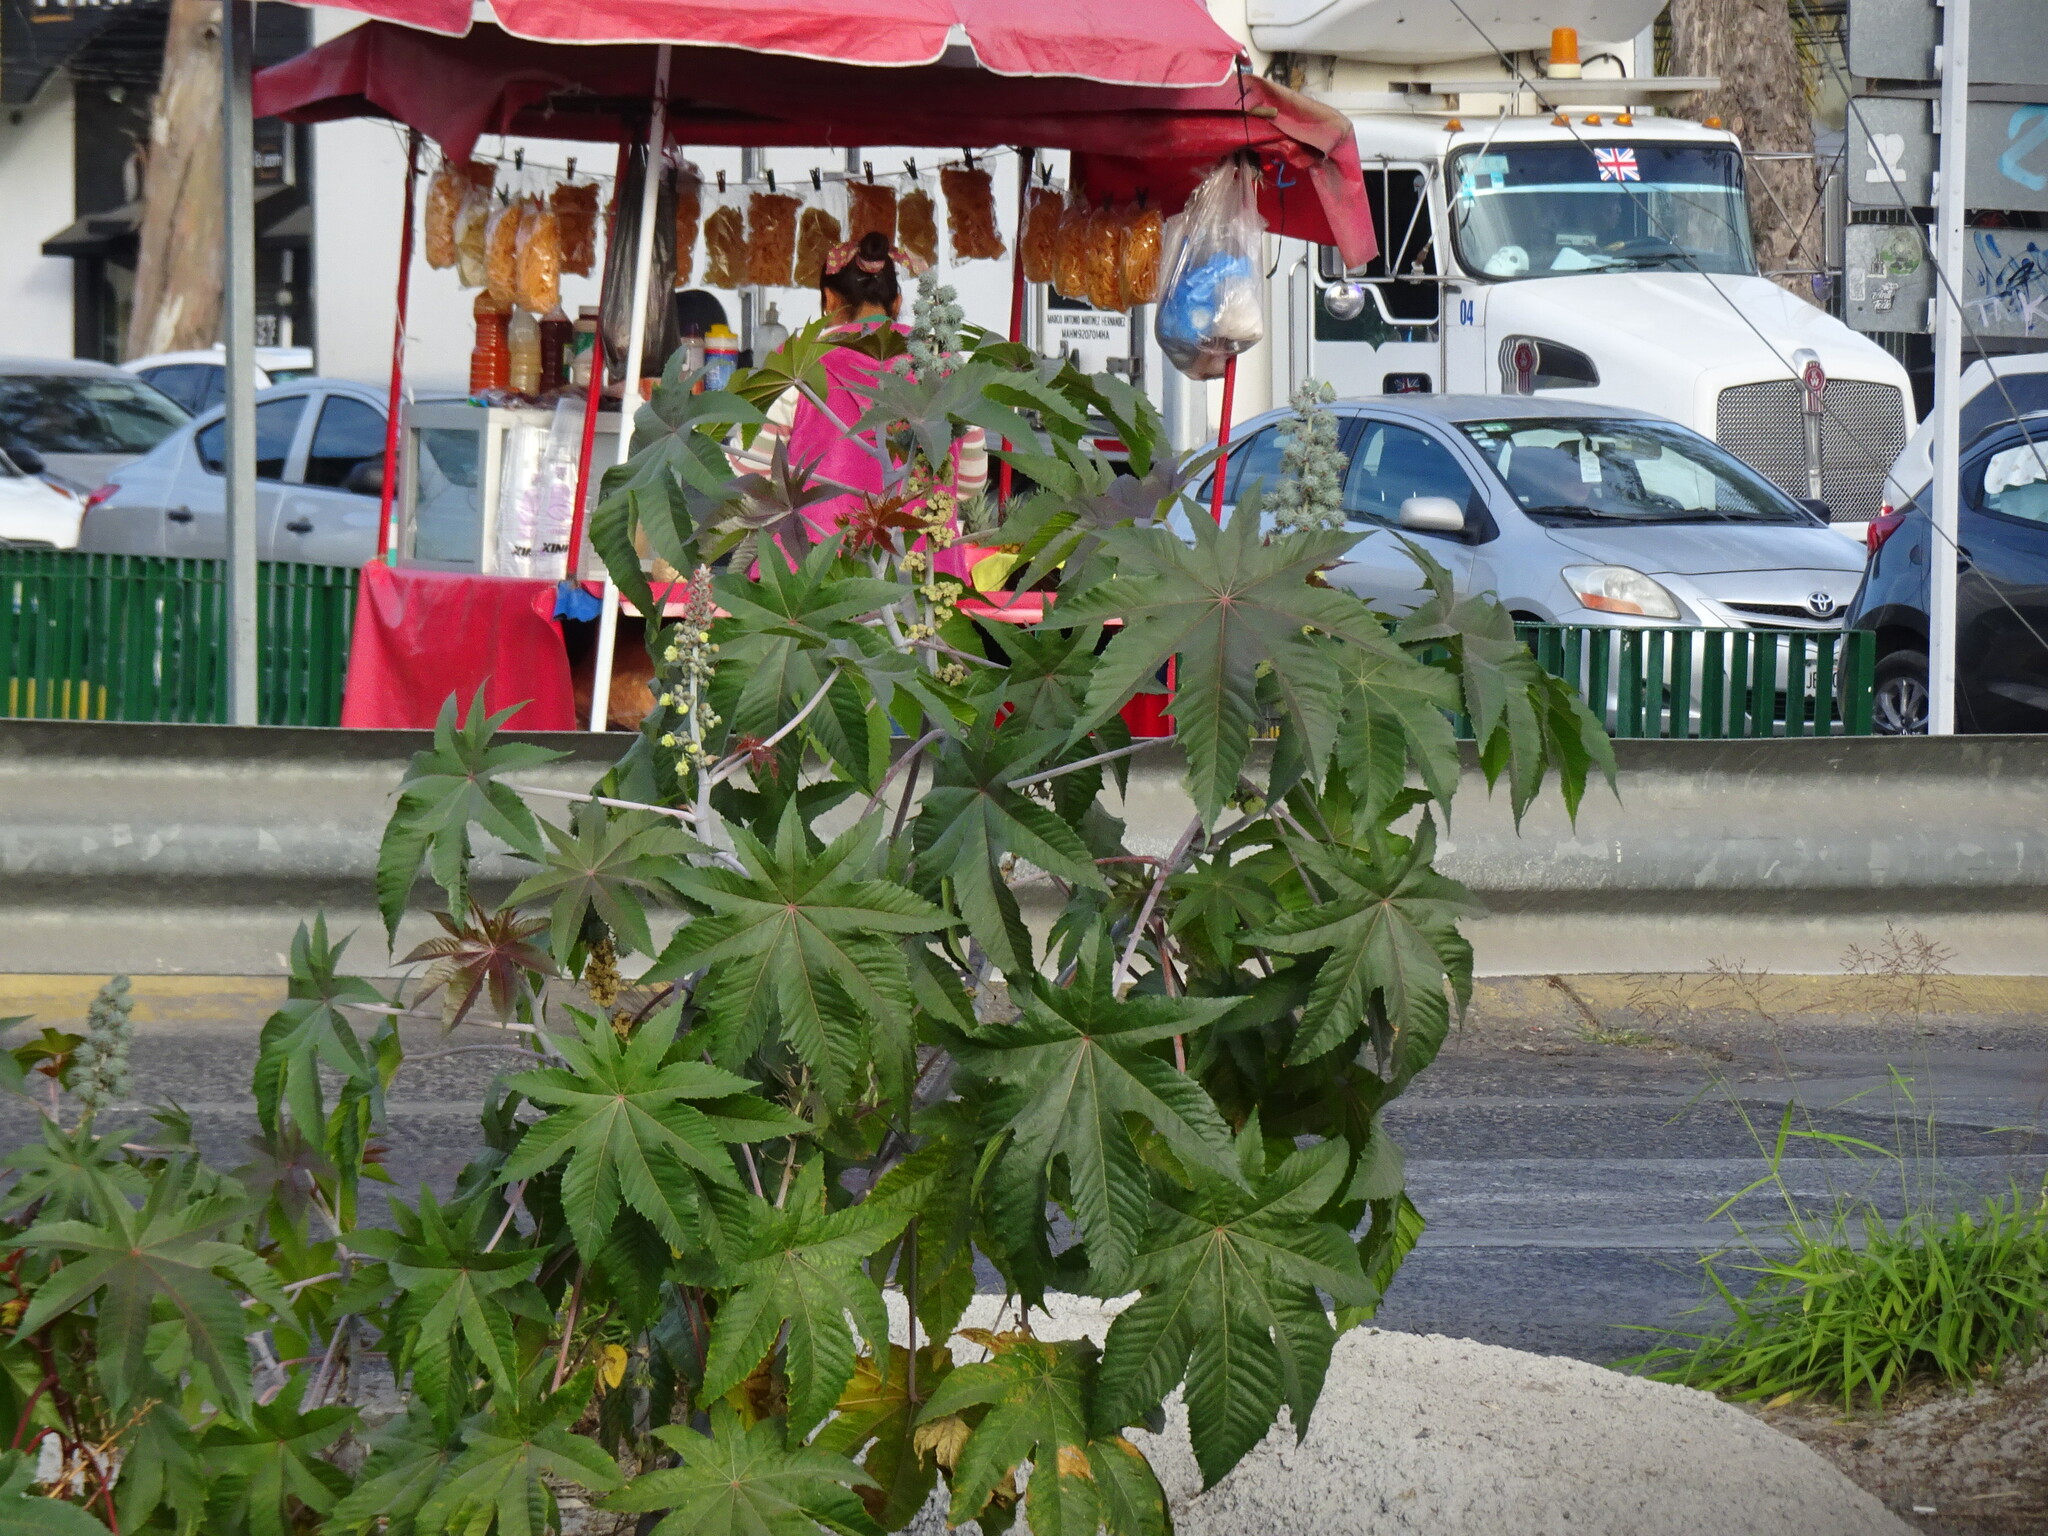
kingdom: Plantae
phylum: Tracheophyta
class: Magnoliopsida
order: Malpighiales
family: Euphorbiaceae
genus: Ricinus
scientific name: Ricinus communis
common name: Castor-oil-plant
